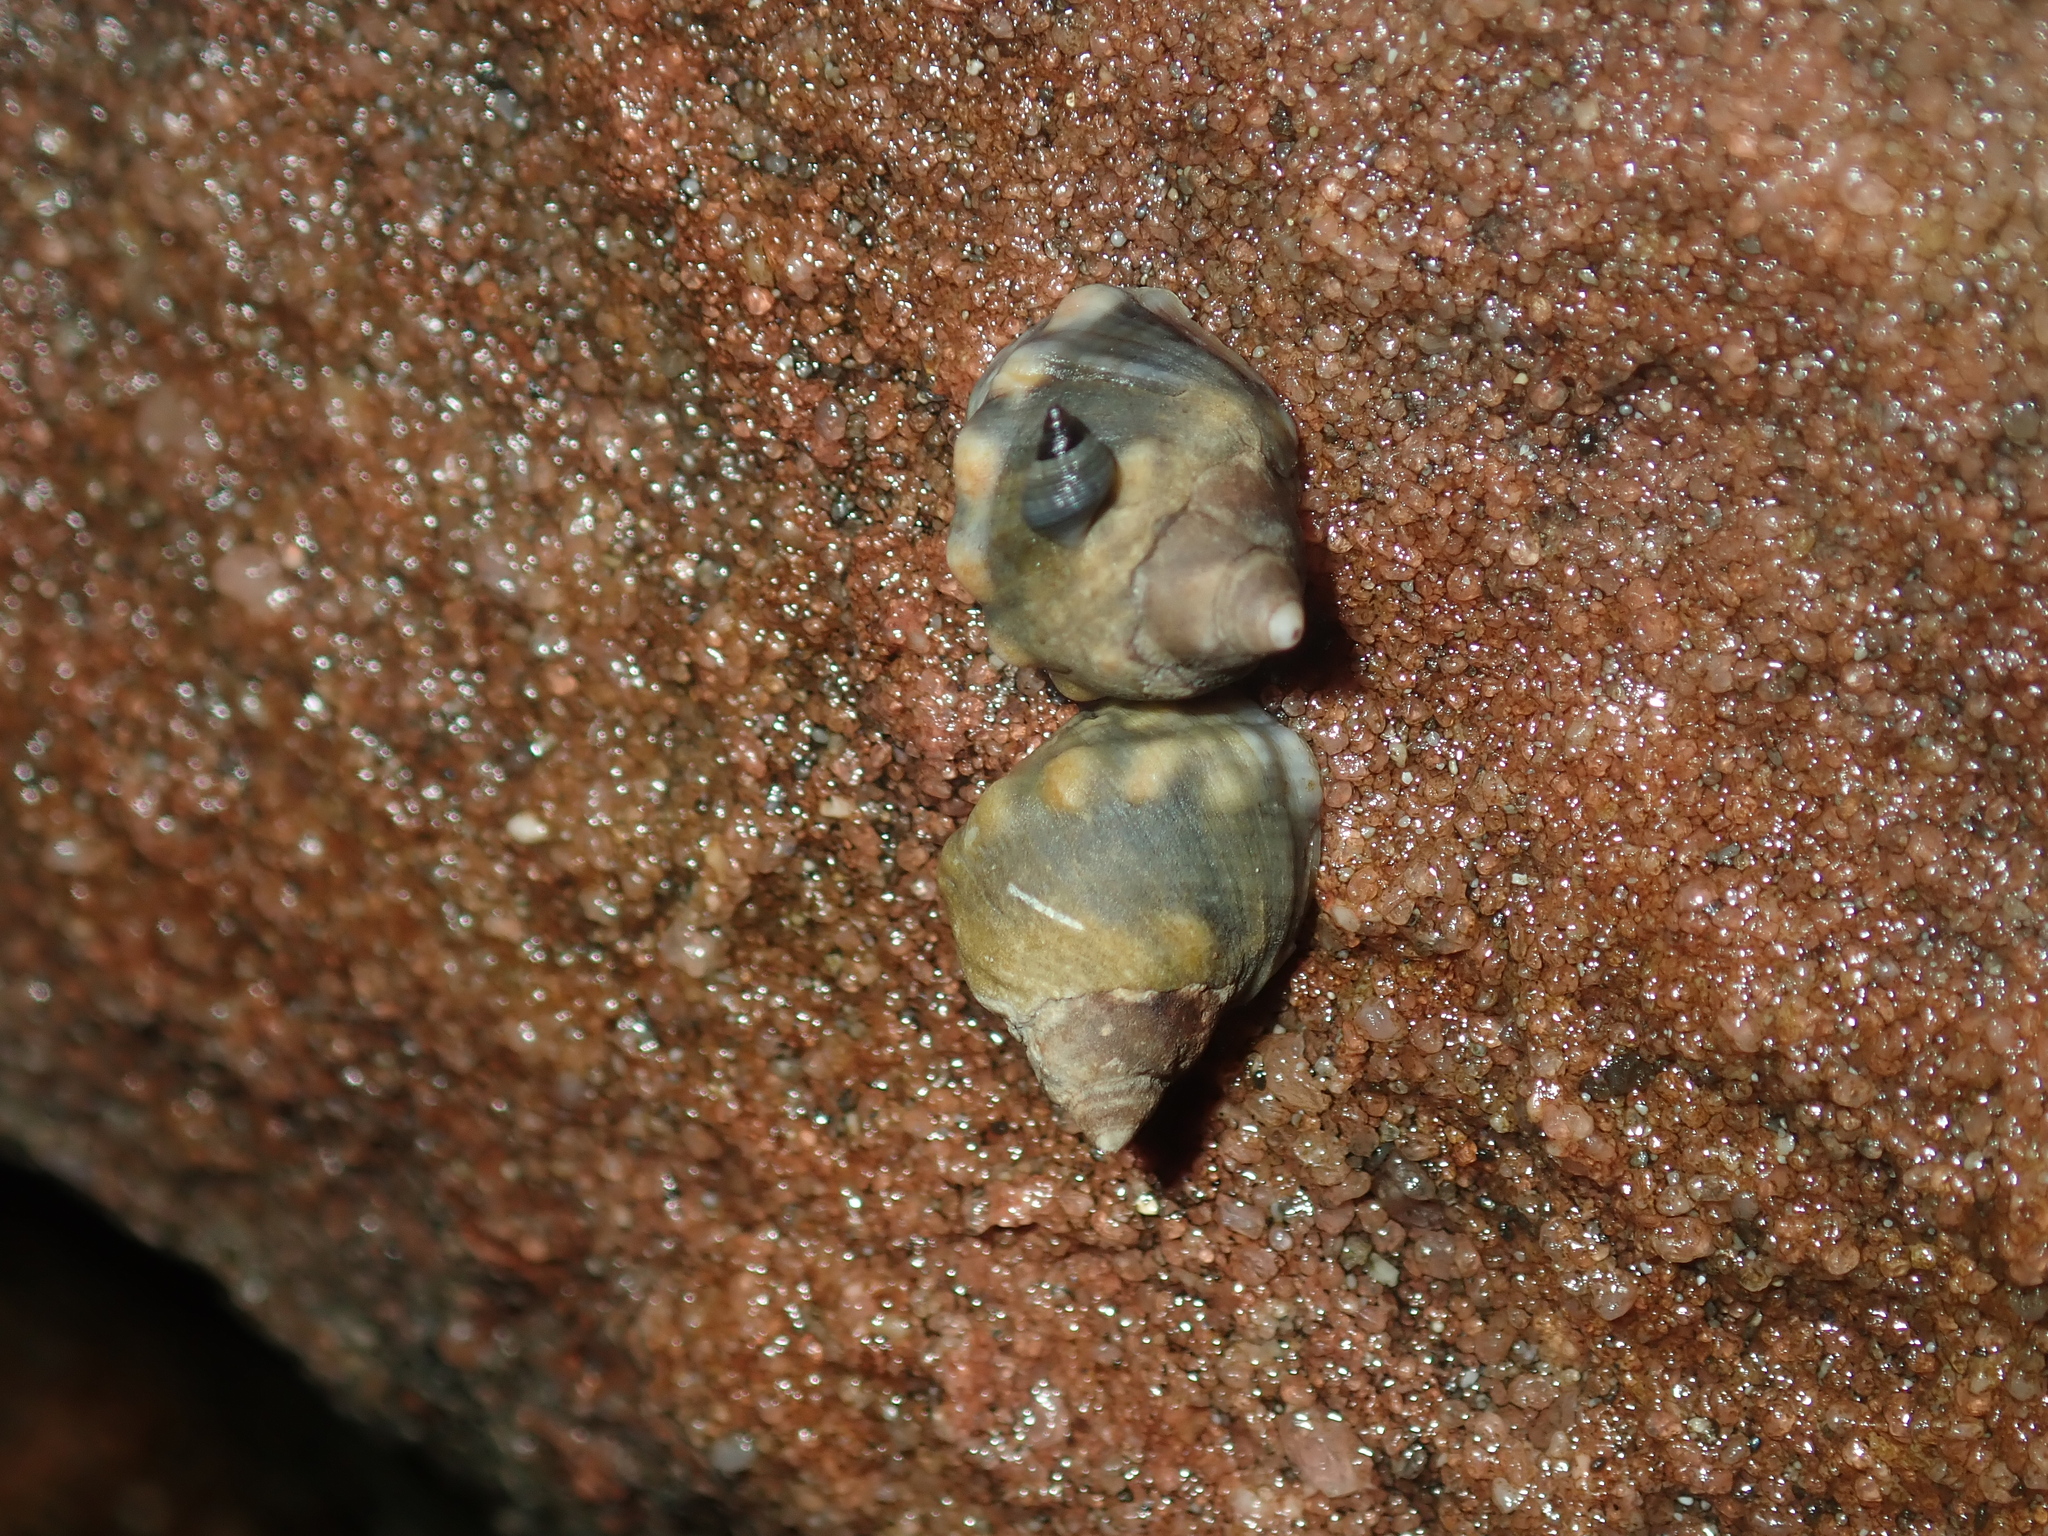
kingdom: Animalia
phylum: Mollusca
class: Gastropoda
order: Littorinimorpha
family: Littorinidae
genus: Echinolittorina
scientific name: Echinolittorina australis
